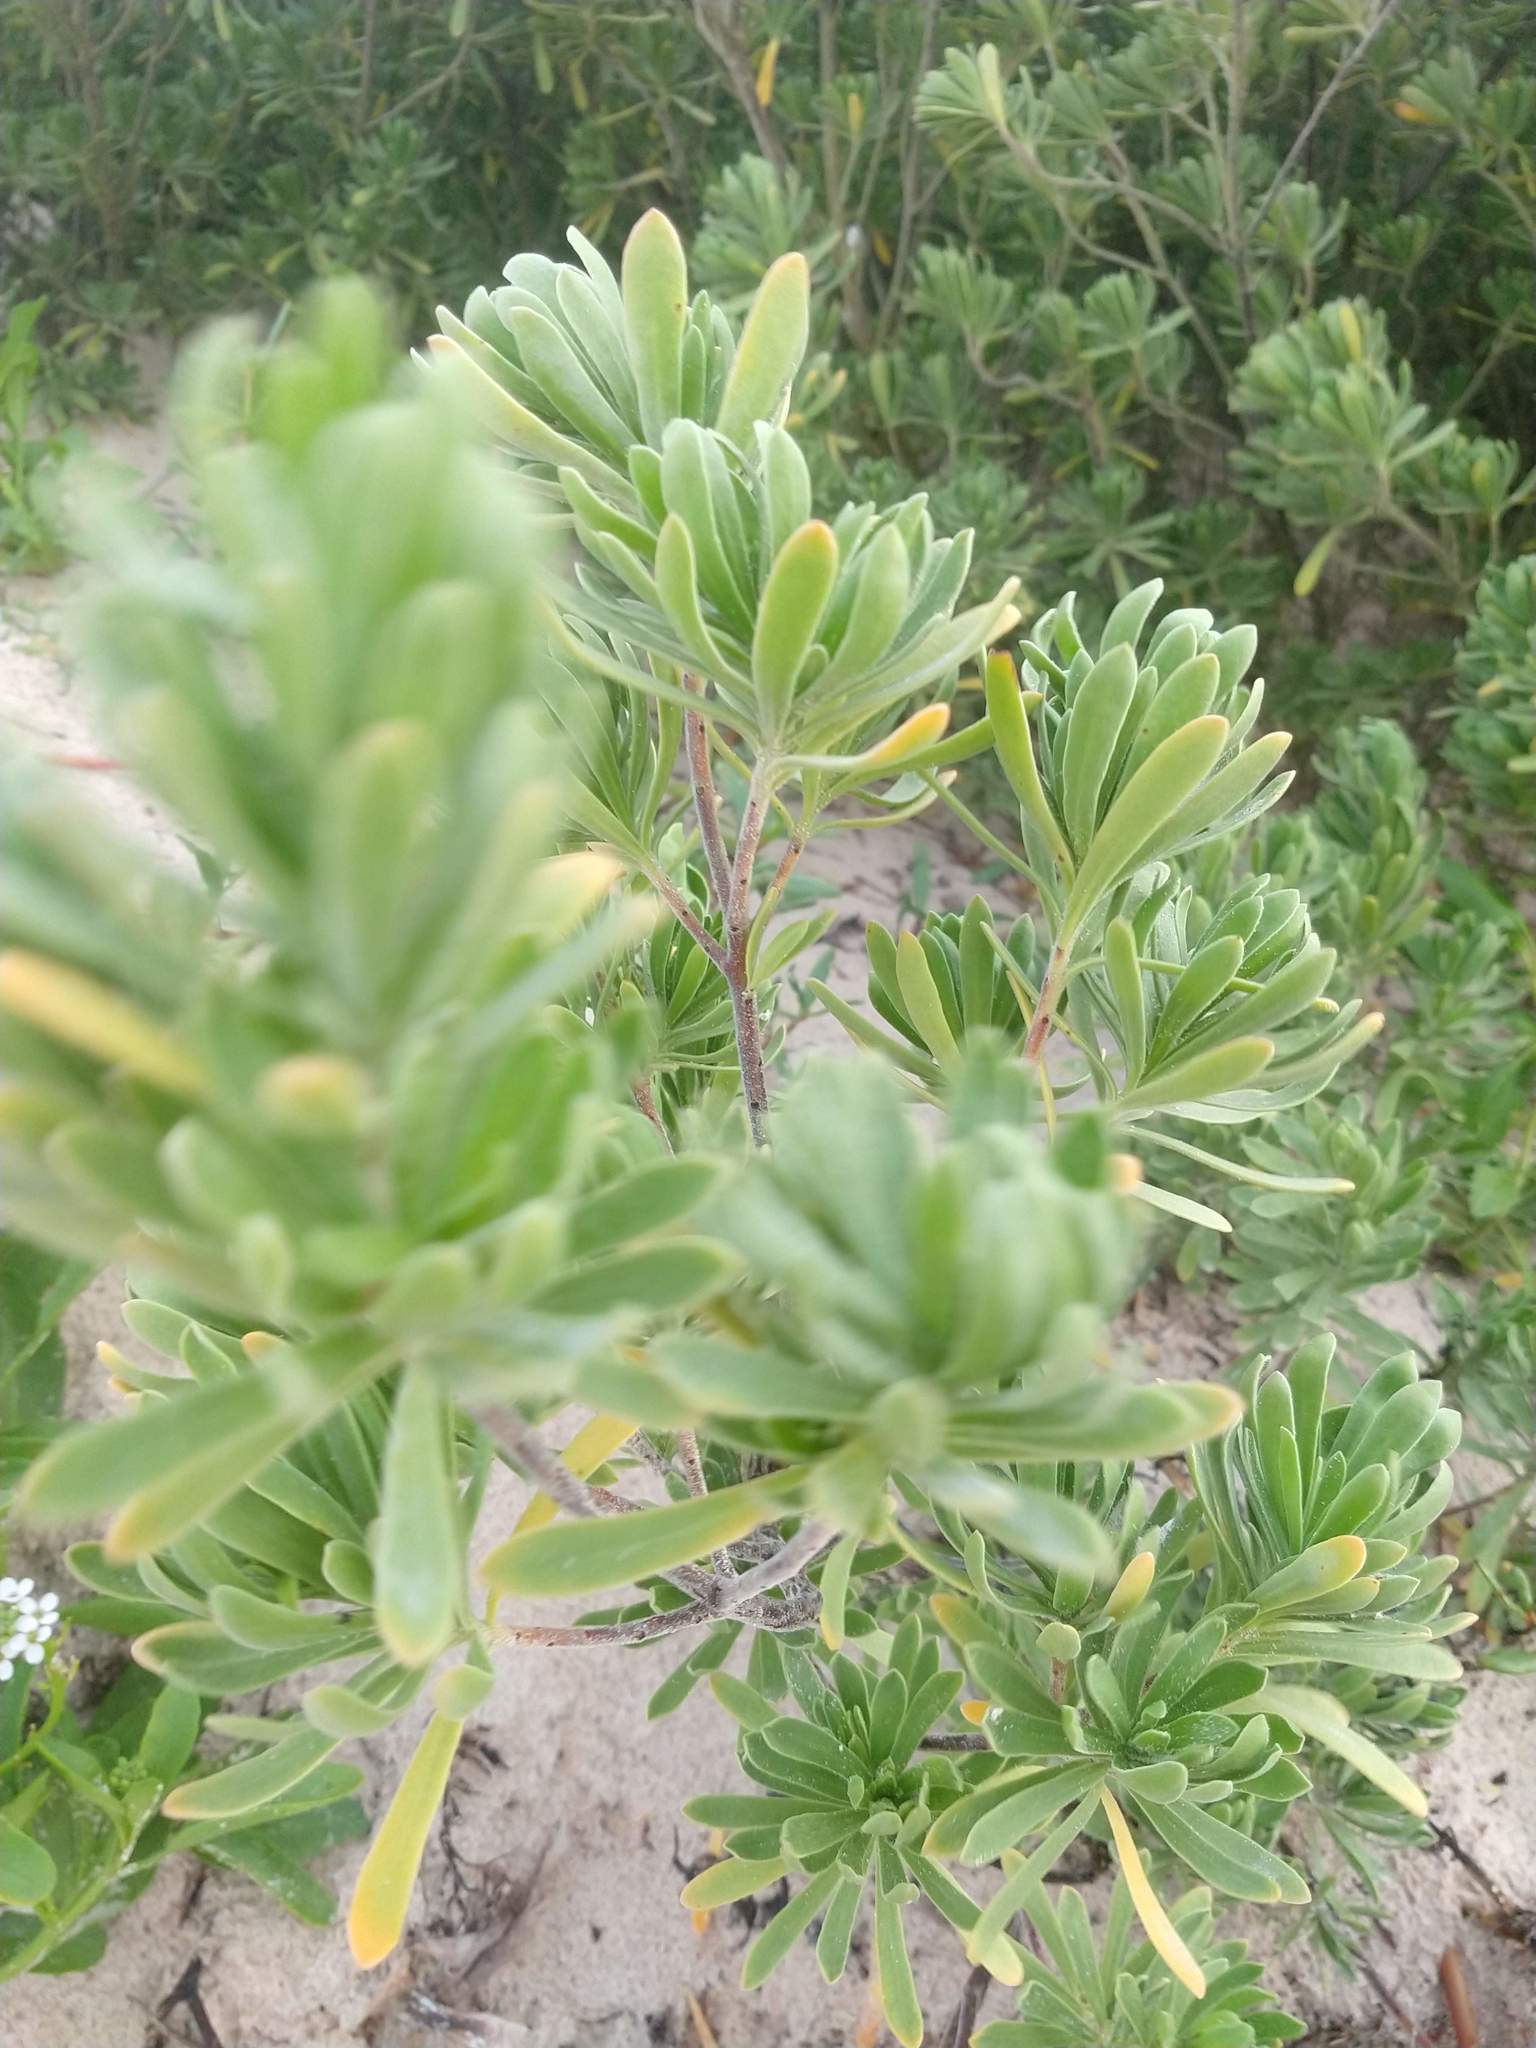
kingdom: Plantae
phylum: Tracheophyta
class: Magnoliopsida
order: Fabales
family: Surianaceae
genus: Suriana
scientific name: Suriana maritima
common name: Bay-cedar
